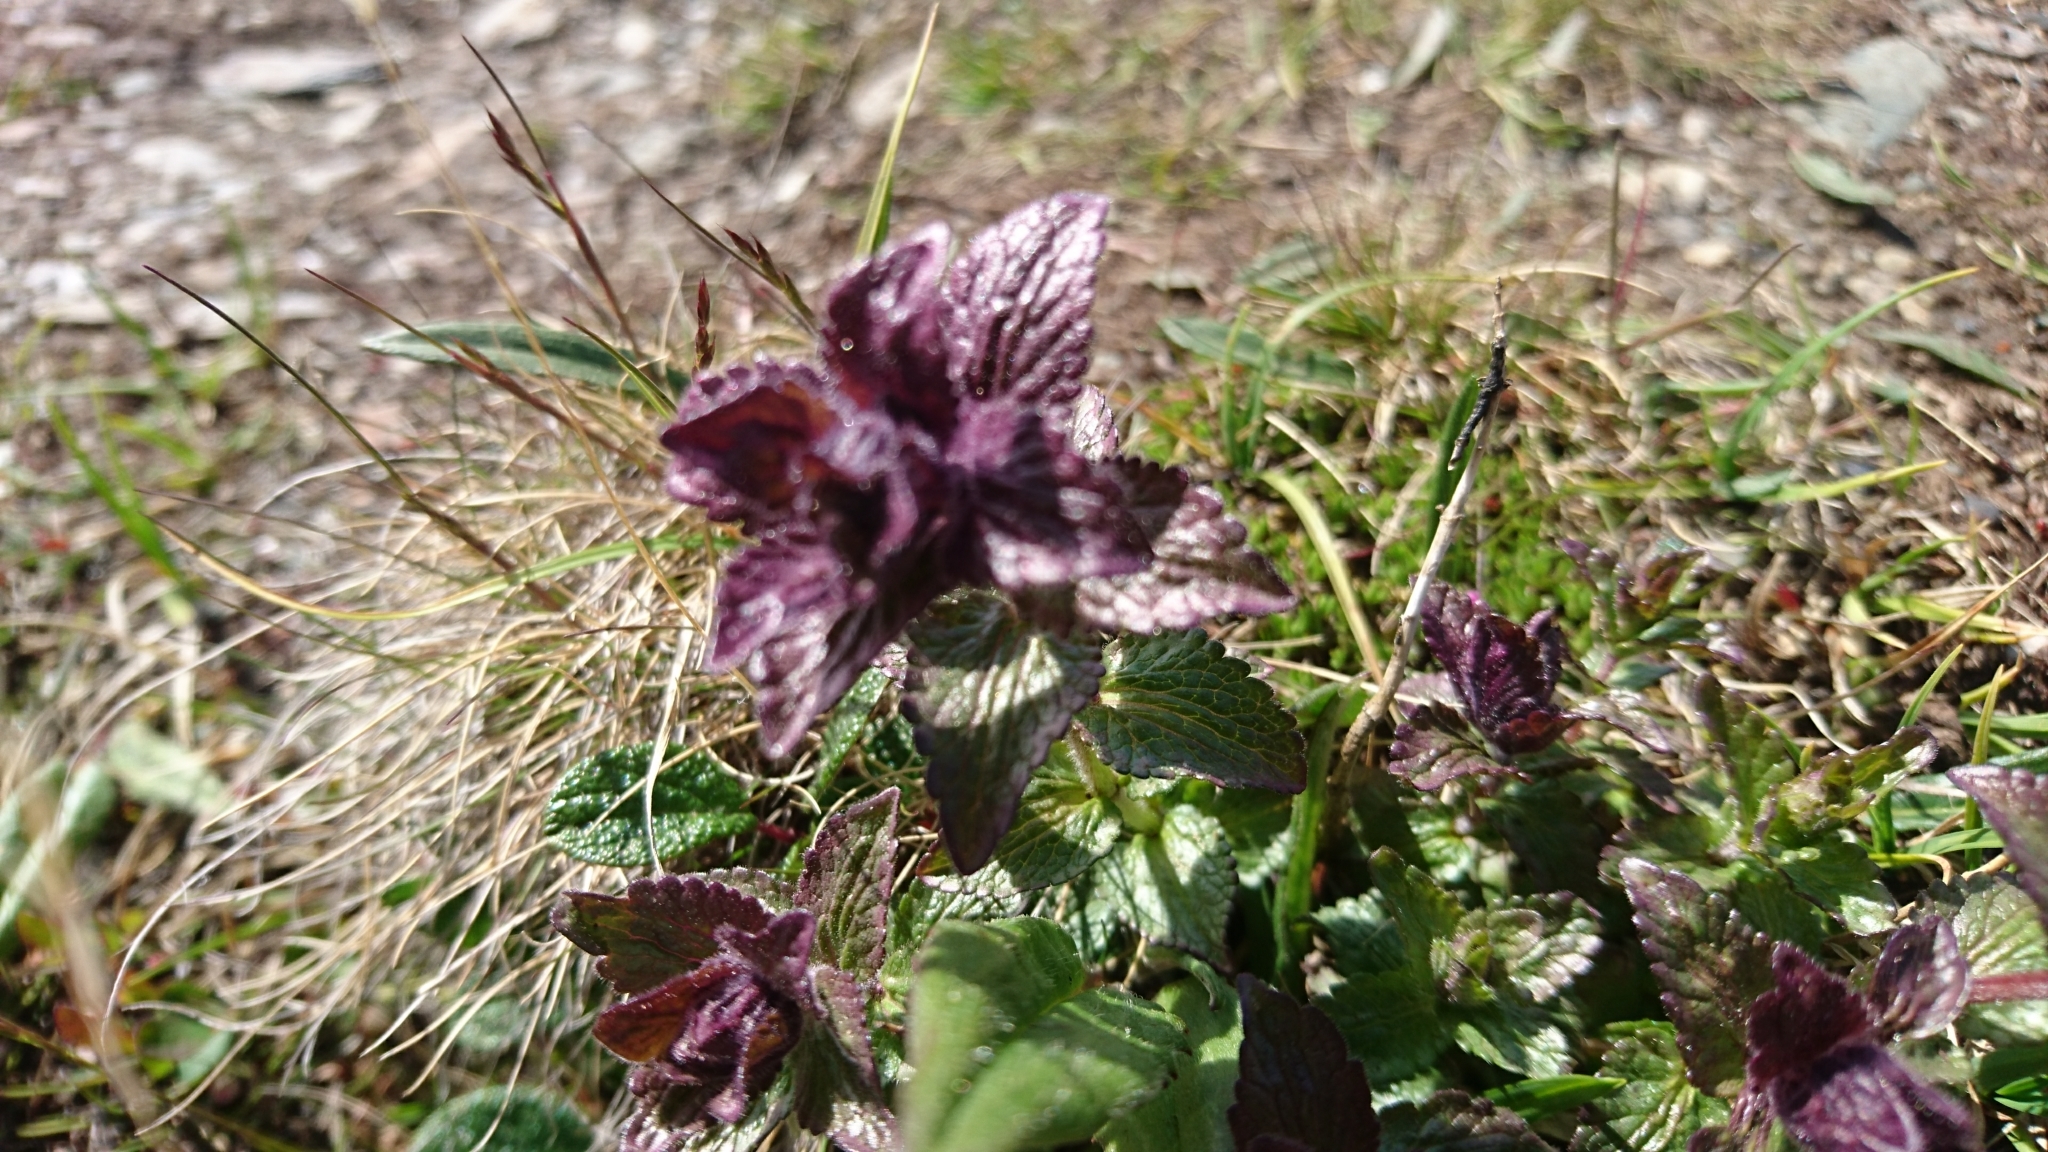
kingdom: Plantae
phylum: Tracheophyta
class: Magnoliopsida
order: Lamiales
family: Orobanchaceae
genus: Bartsia
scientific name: Bartsia alpina
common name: Alpine bartsia
